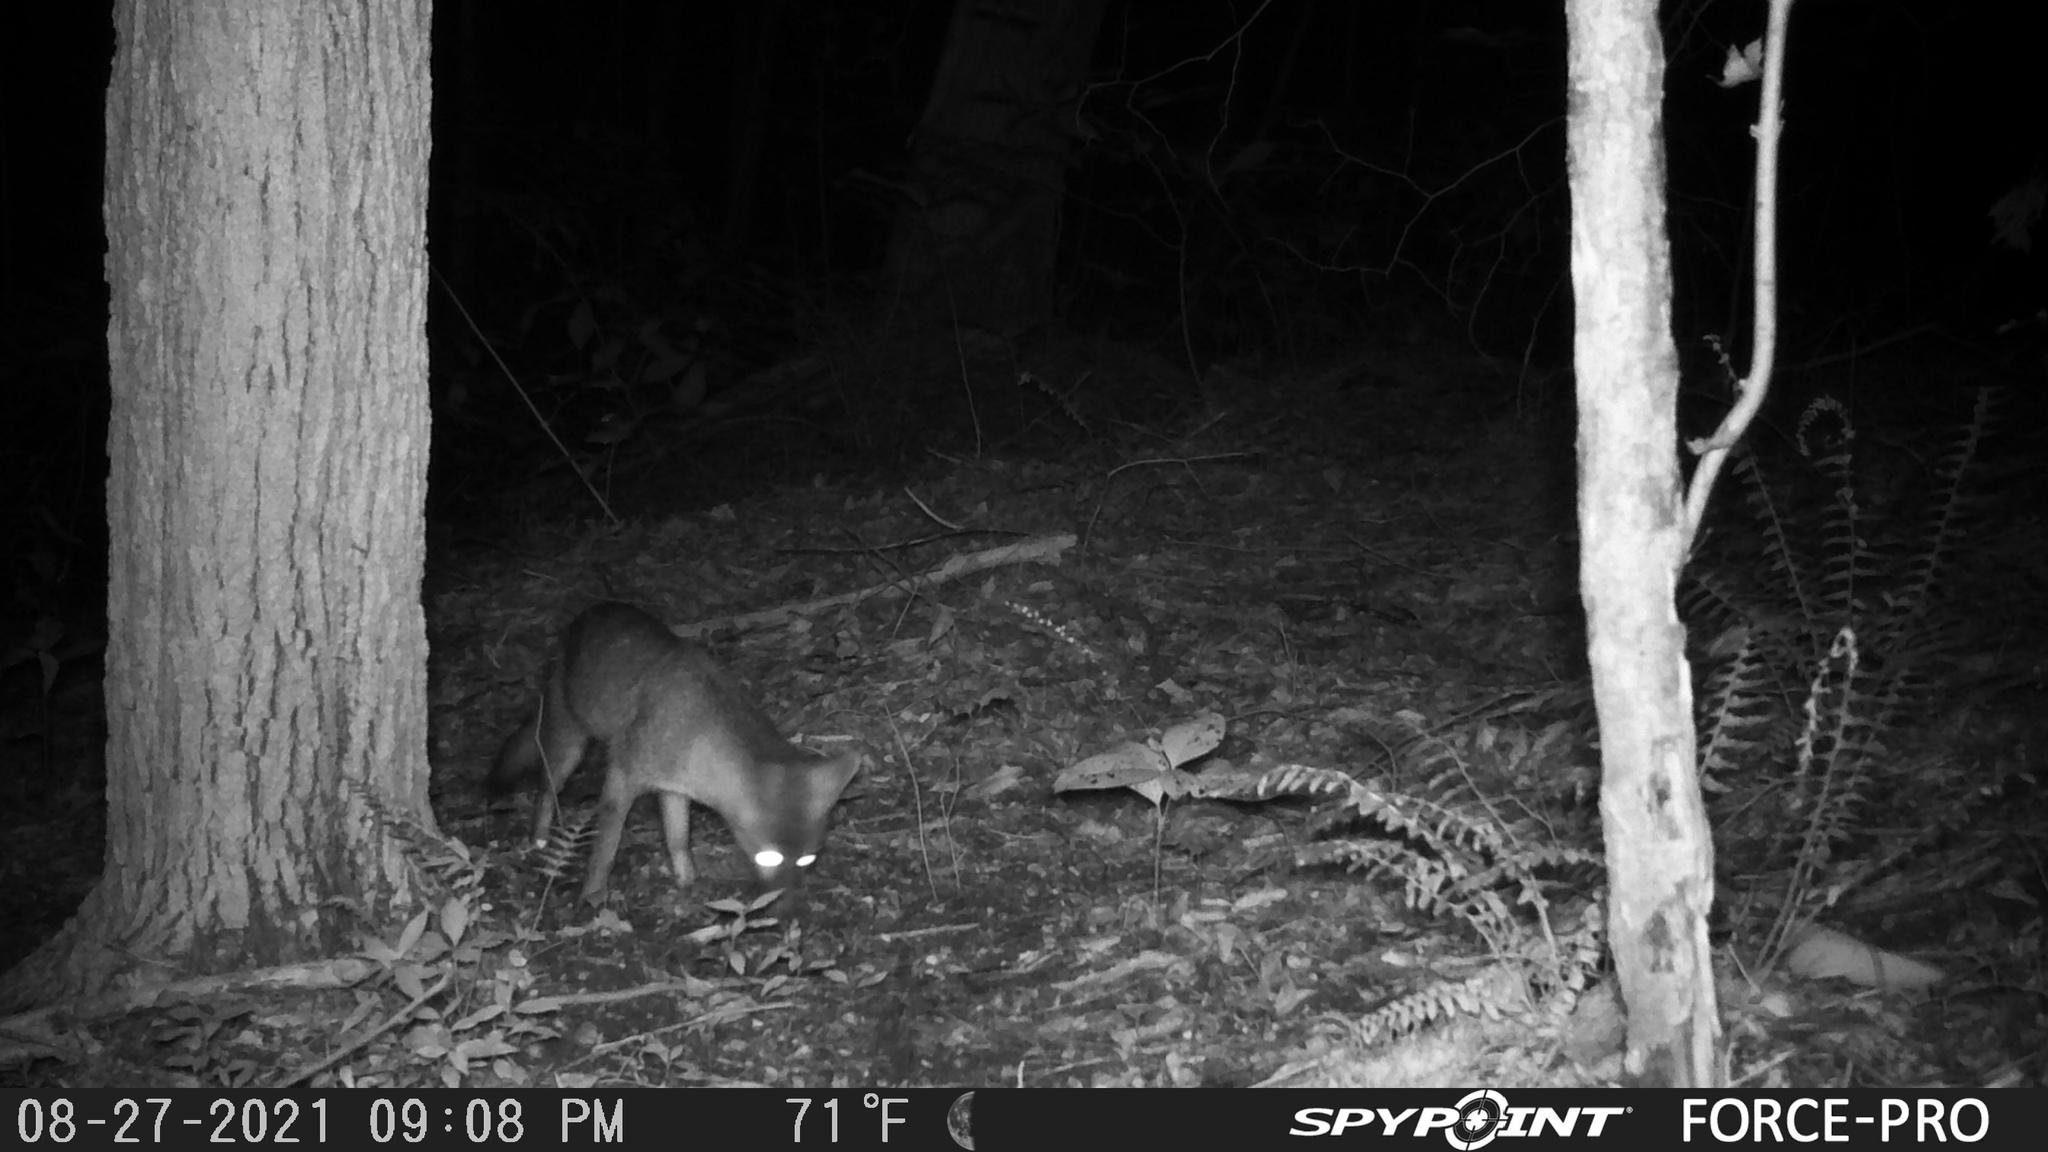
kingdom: Animalia
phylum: Chordata
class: Mammalia
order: Carnivora
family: Canidae
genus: Urocyon
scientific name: Urocyon cinereoargenteus
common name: Gray fox
